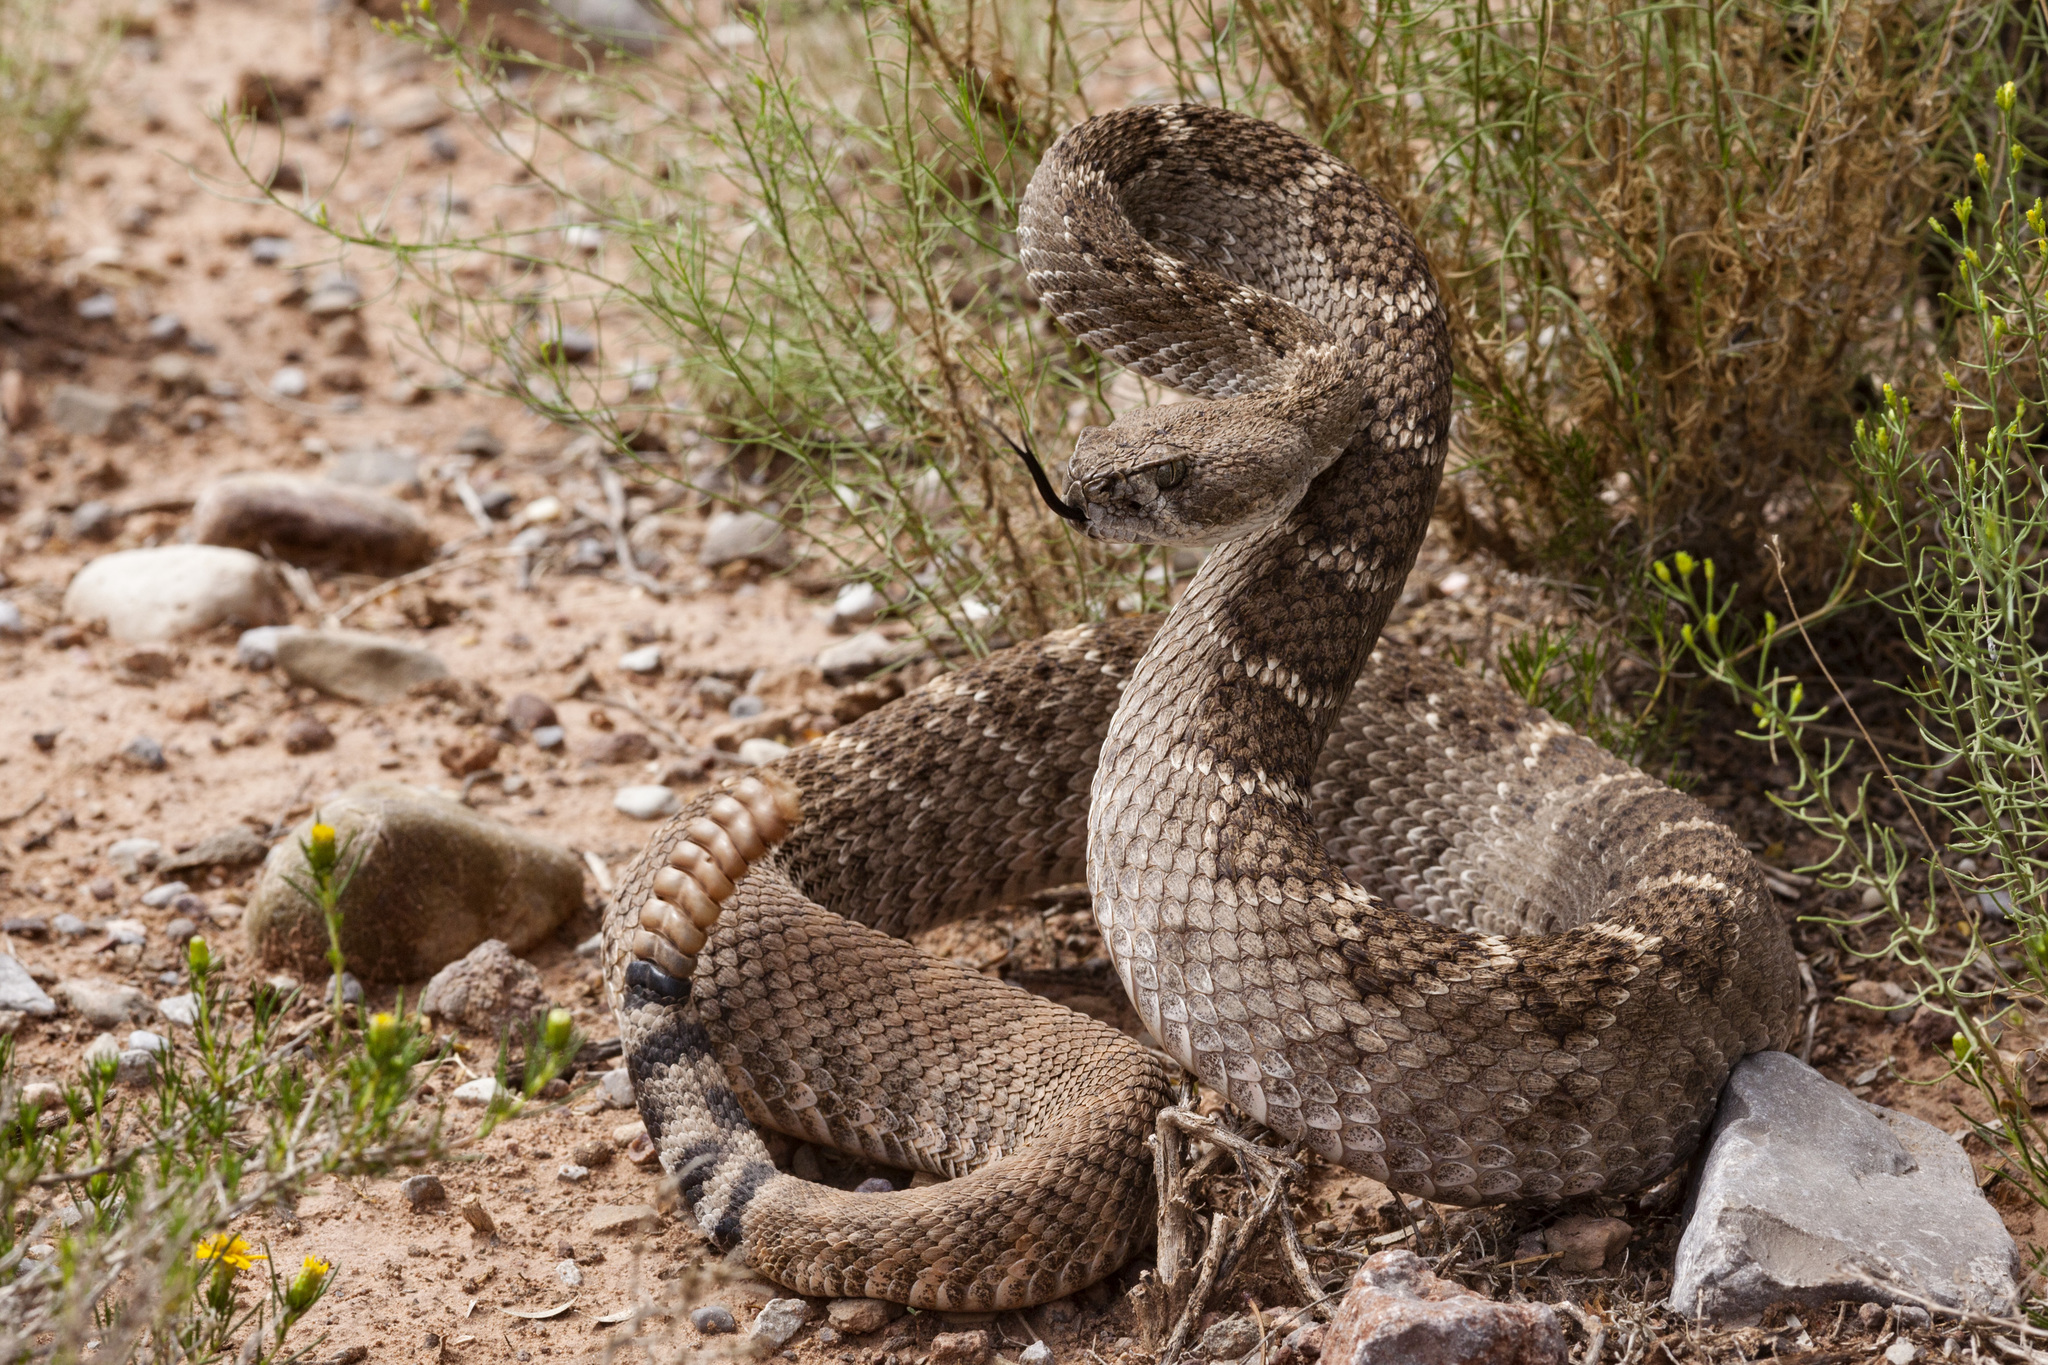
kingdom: Animalia
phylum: Chordata
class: Squamata
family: Viperidae
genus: Crotalus
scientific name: Crotalus atrox
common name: Western diamond-backed rattlesnake
